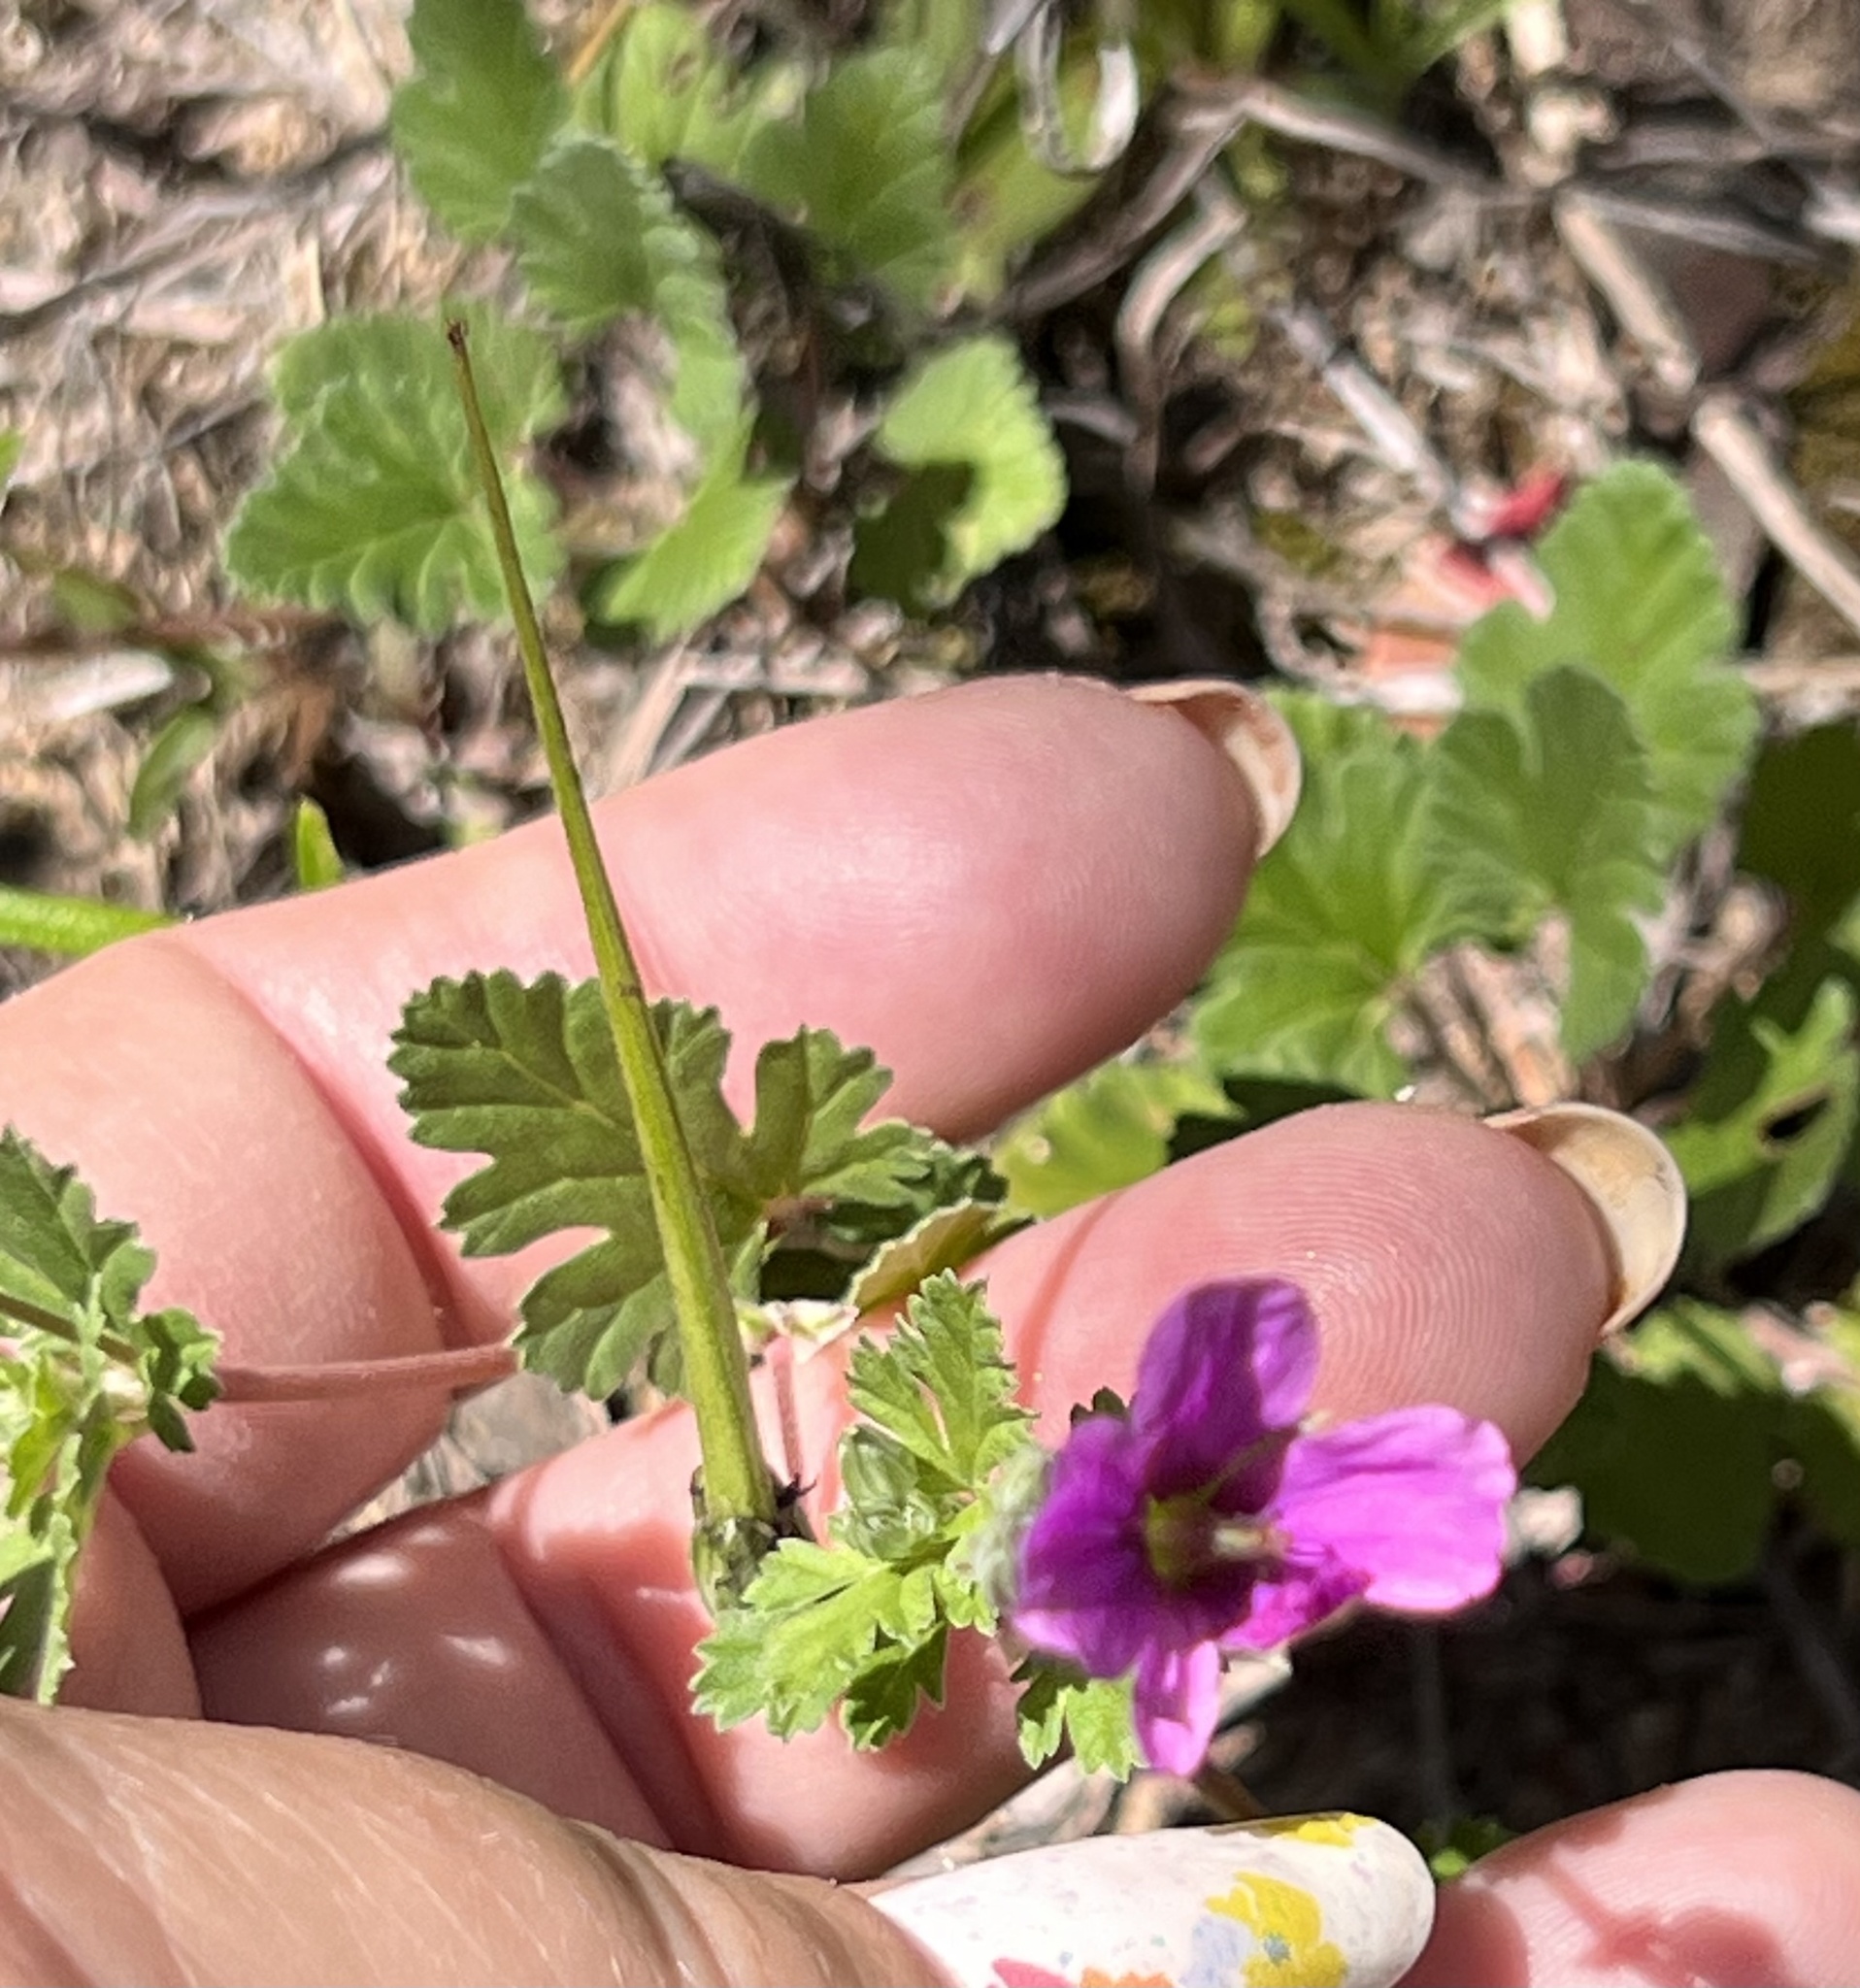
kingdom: Plantae
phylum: Tracheophyta
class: Magnoliopsida
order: Geraniales
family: Geraniaceae
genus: Erodium
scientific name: Erodium texanum
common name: Texas stork's-bill
